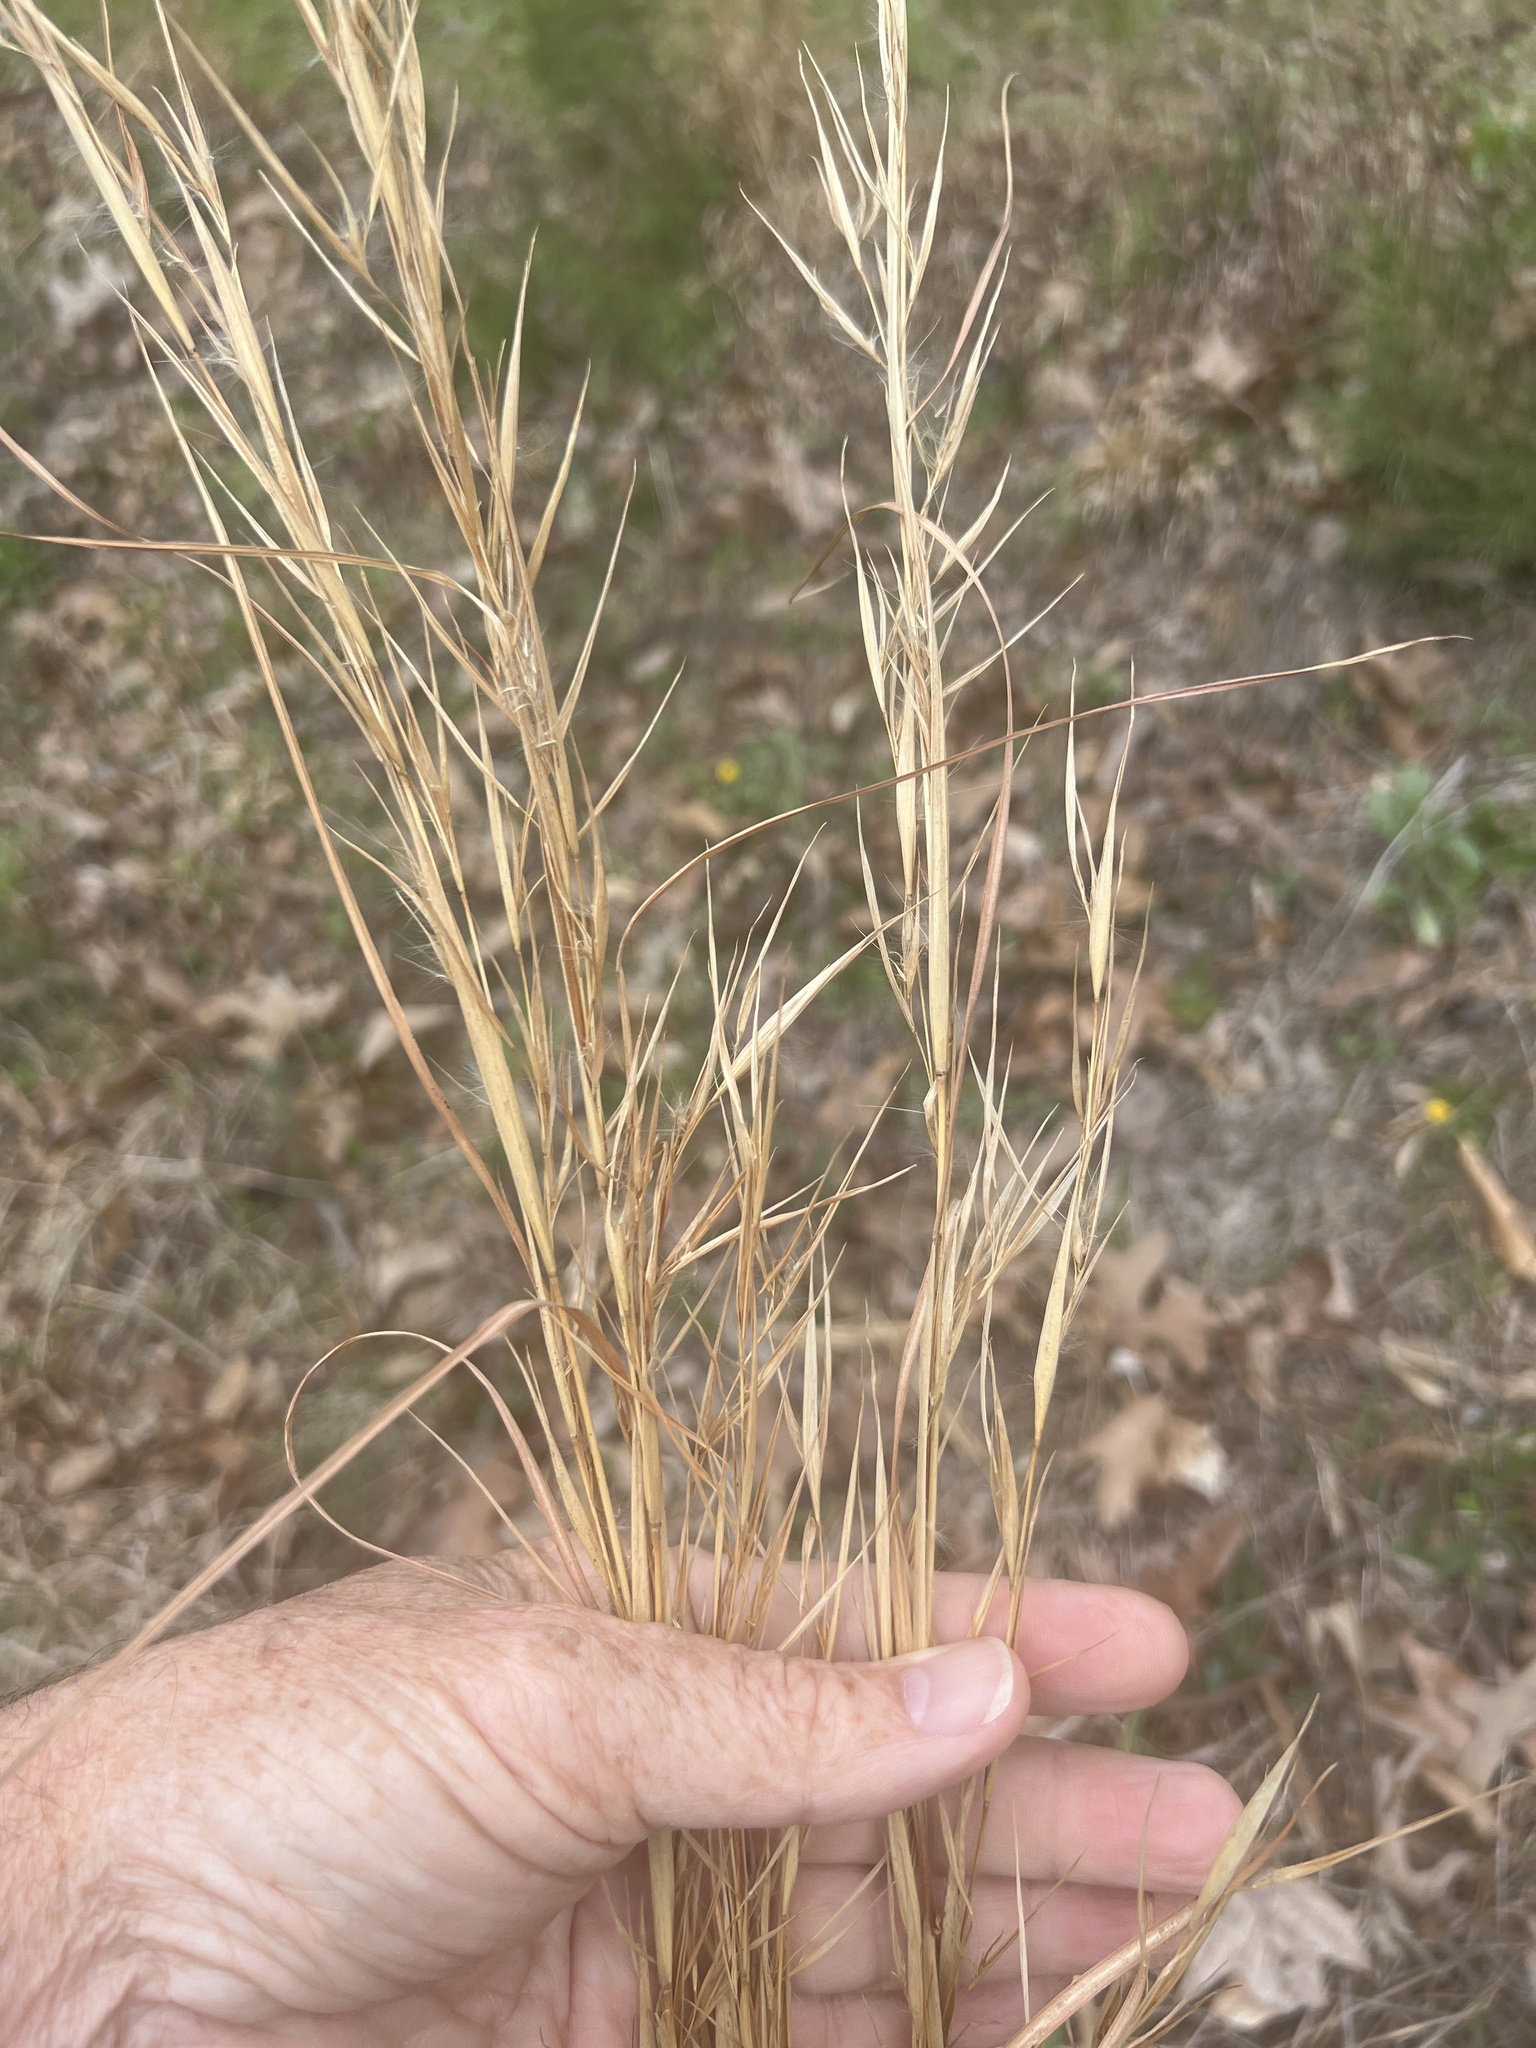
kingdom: Plantae
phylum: Tracheophyta
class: Liliopsida
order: Poales
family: Poaceae
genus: Andropogon
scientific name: Andropogon virginicus
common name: Broomsedge bluestem
